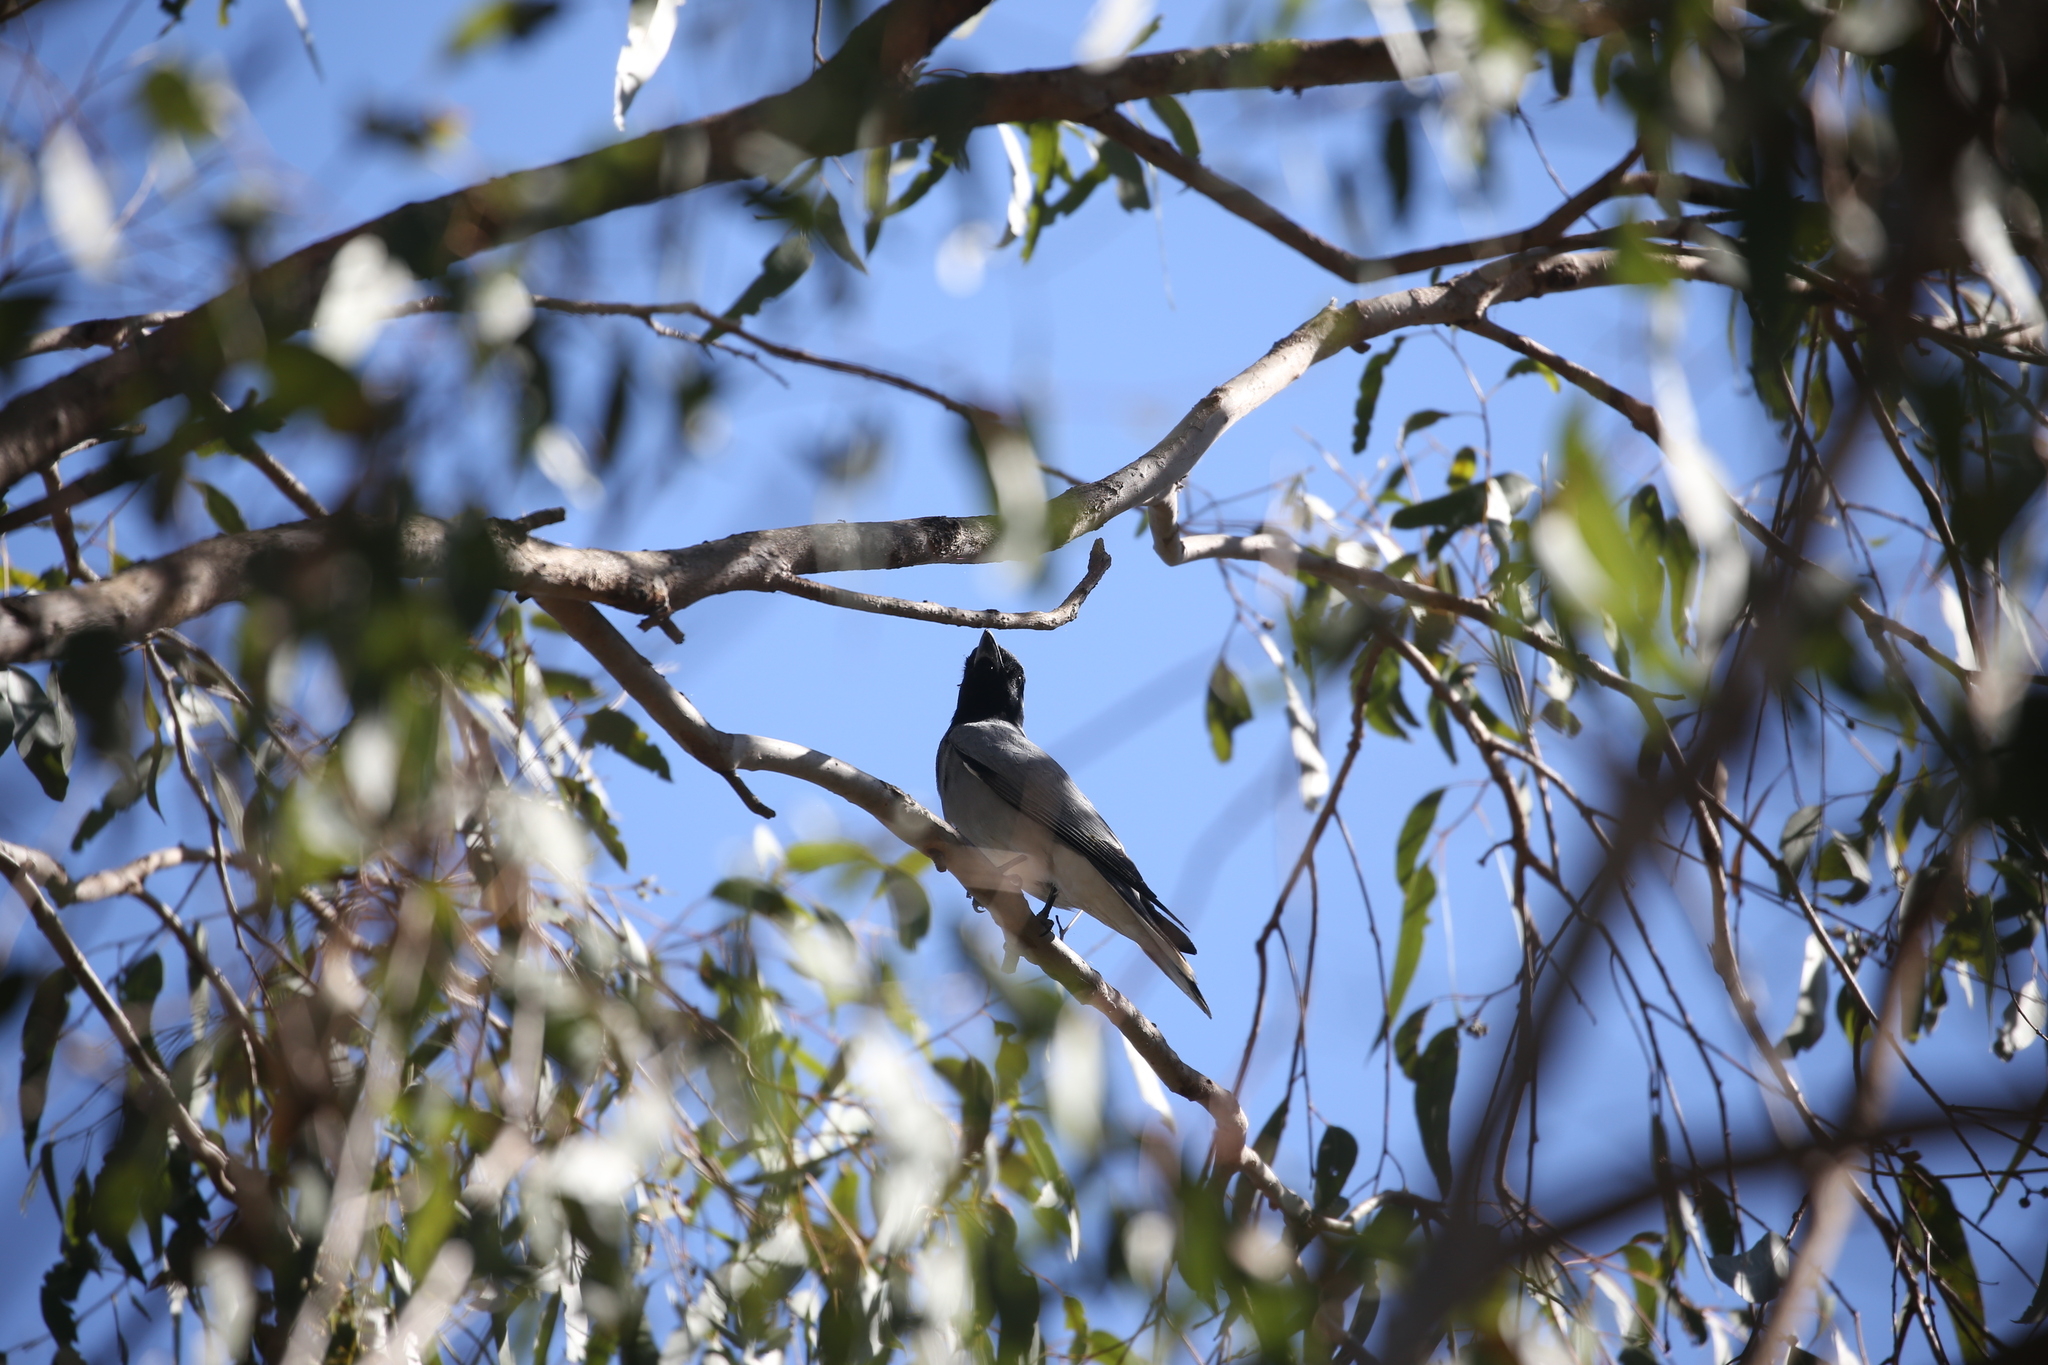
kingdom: Animalia
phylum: Chordata
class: Aves
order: Passeriformes
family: Campephagidae
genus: Coracina
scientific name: Coracina novaehollandiae
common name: Black-faced cuckooshrike
